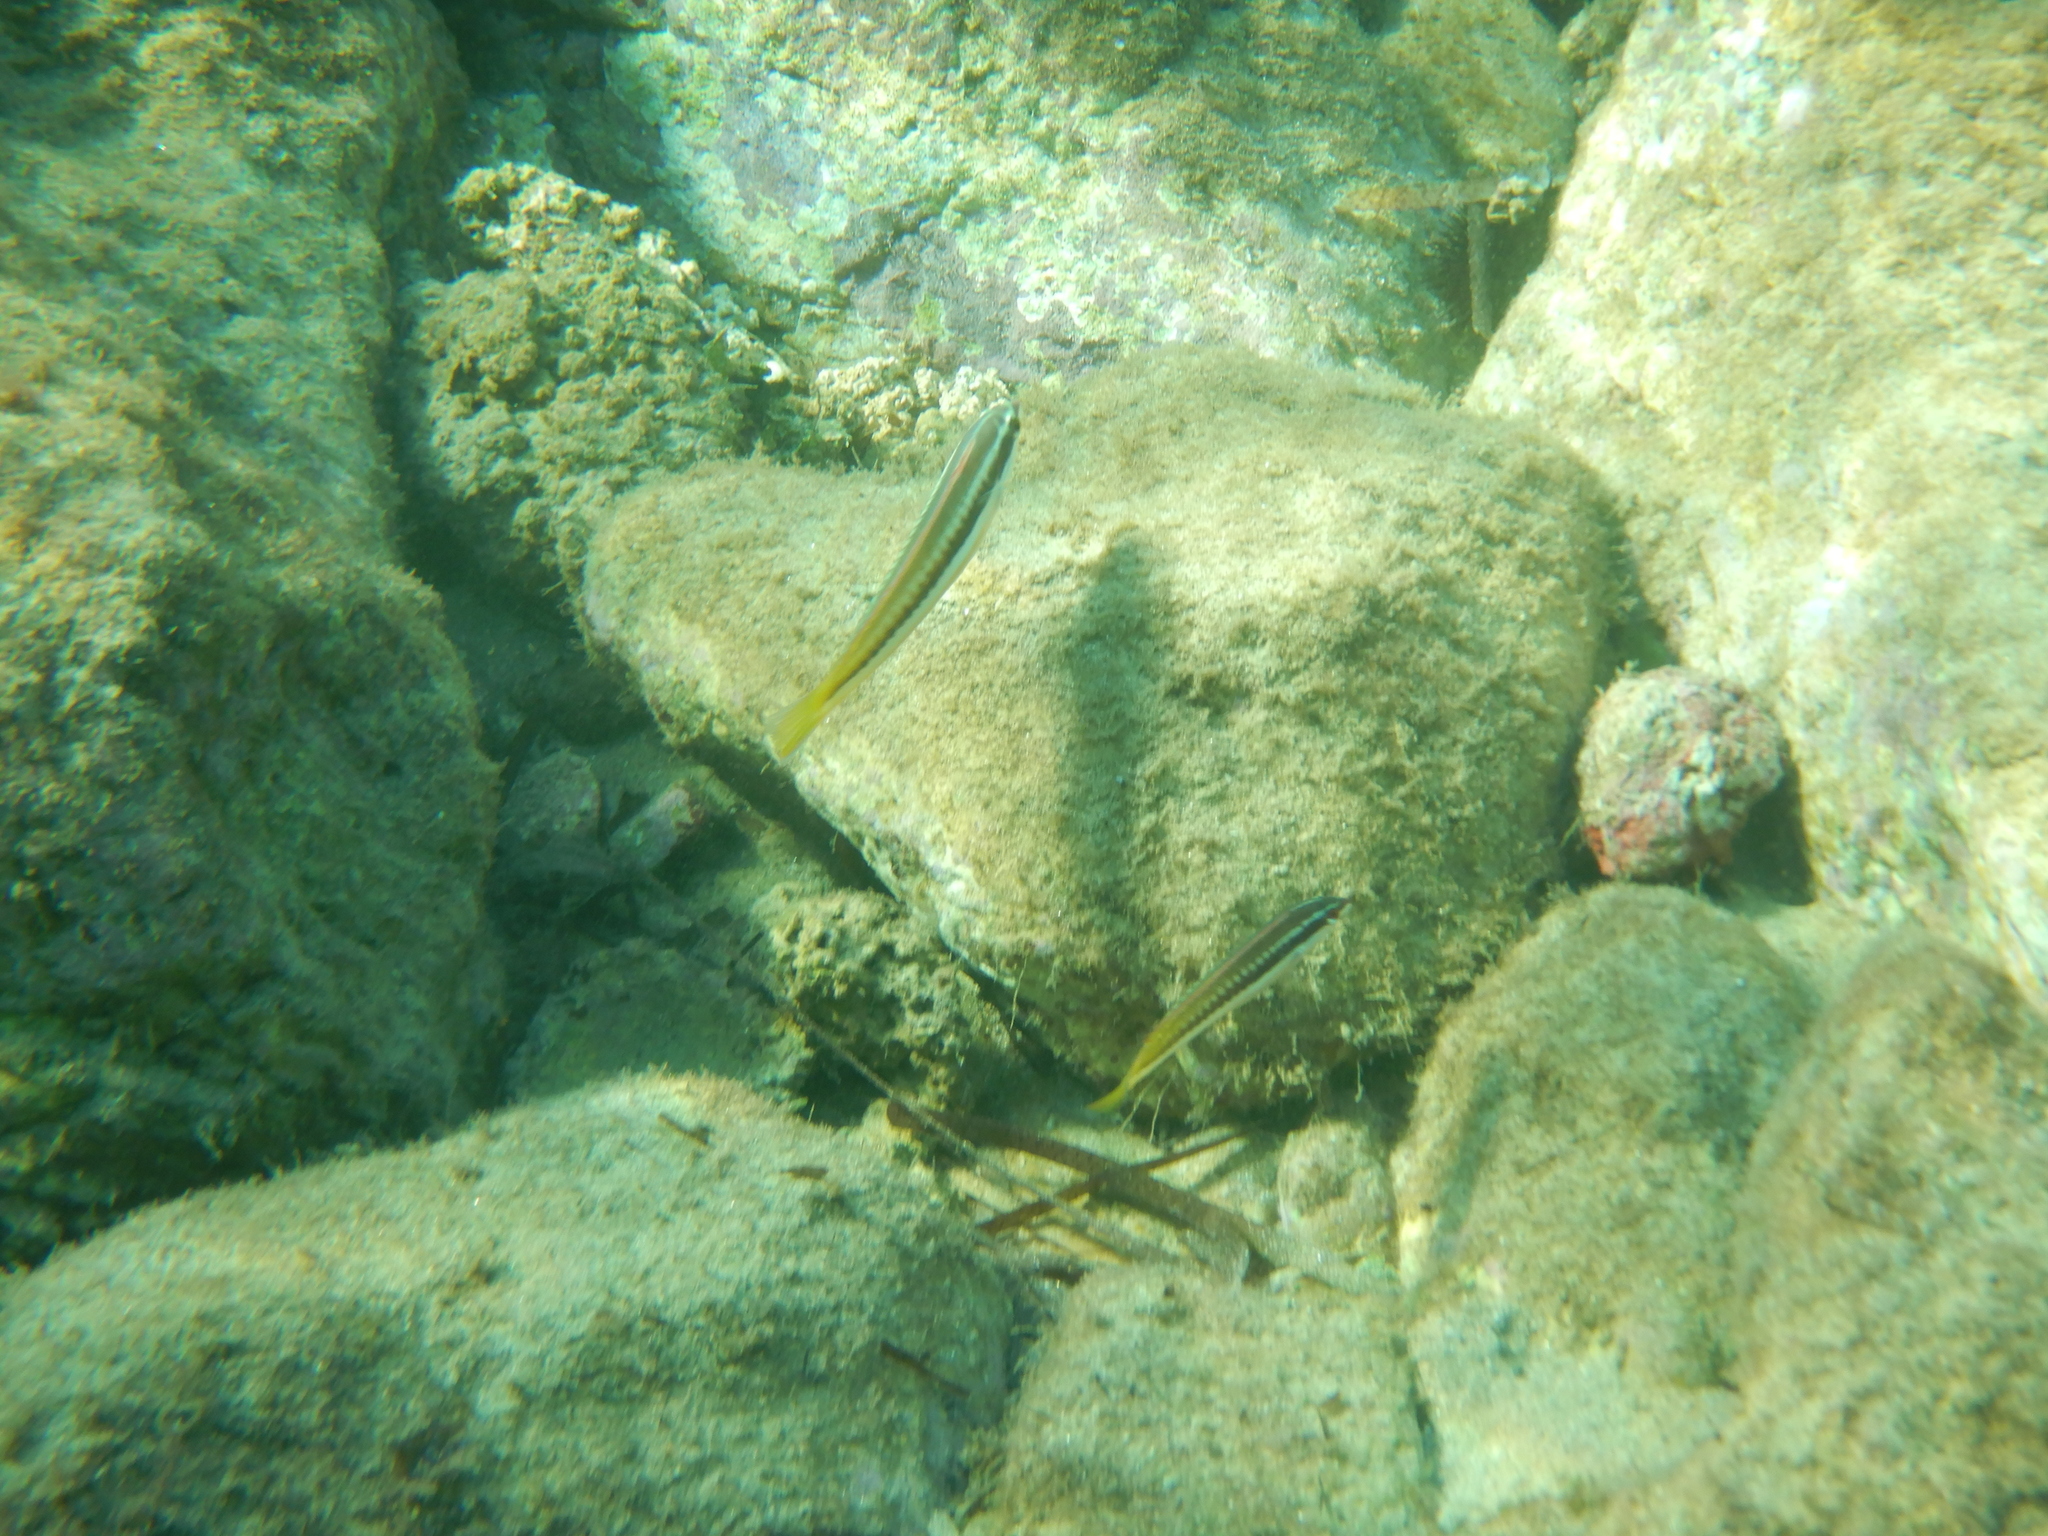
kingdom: Animalia
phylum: Chordata
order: Perciformes
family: Labridae
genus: Coris
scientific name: Coris julis
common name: Rainbow wrasse
